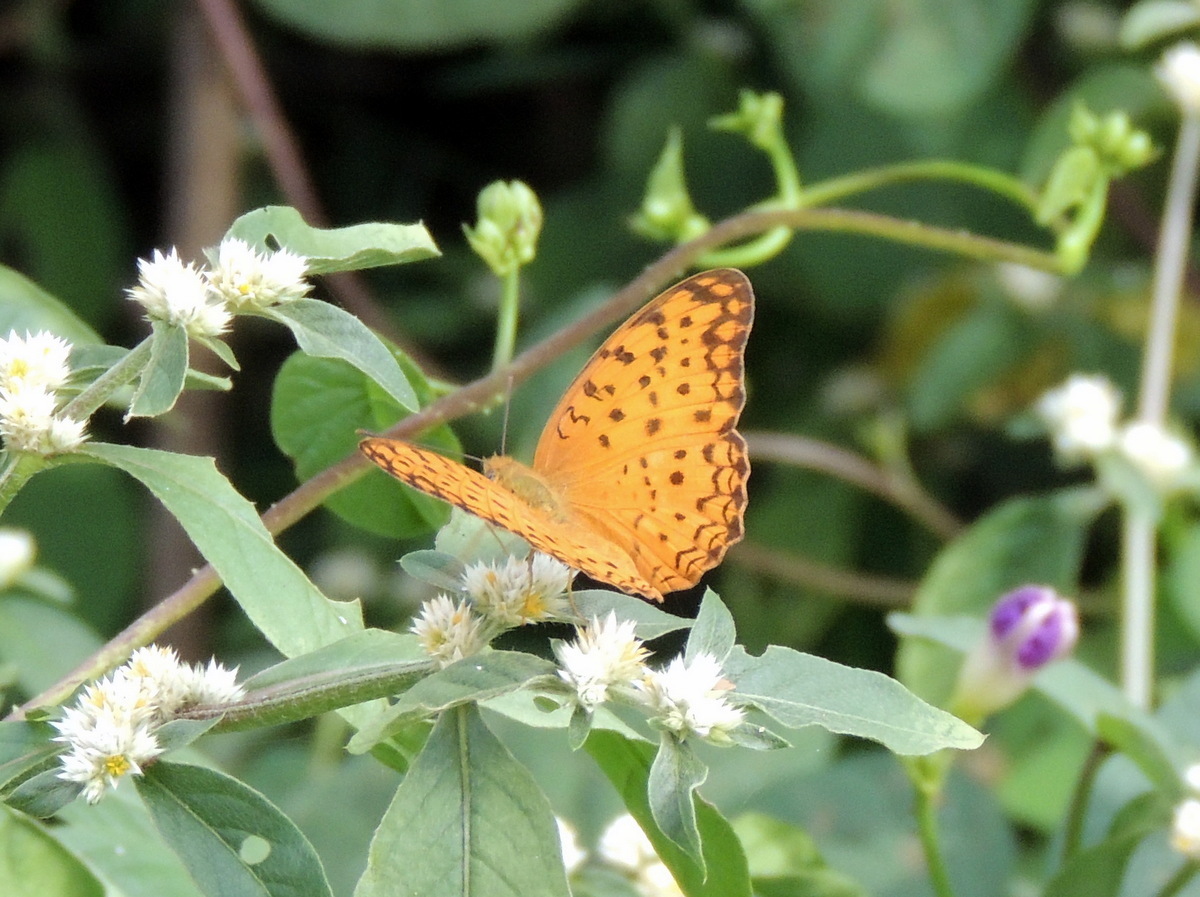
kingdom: Animalia
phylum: Arthropoda
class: Insecta
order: Lepidoptera
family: Nymphalidae
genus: Phalanta
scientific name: Phalanta phalantha
